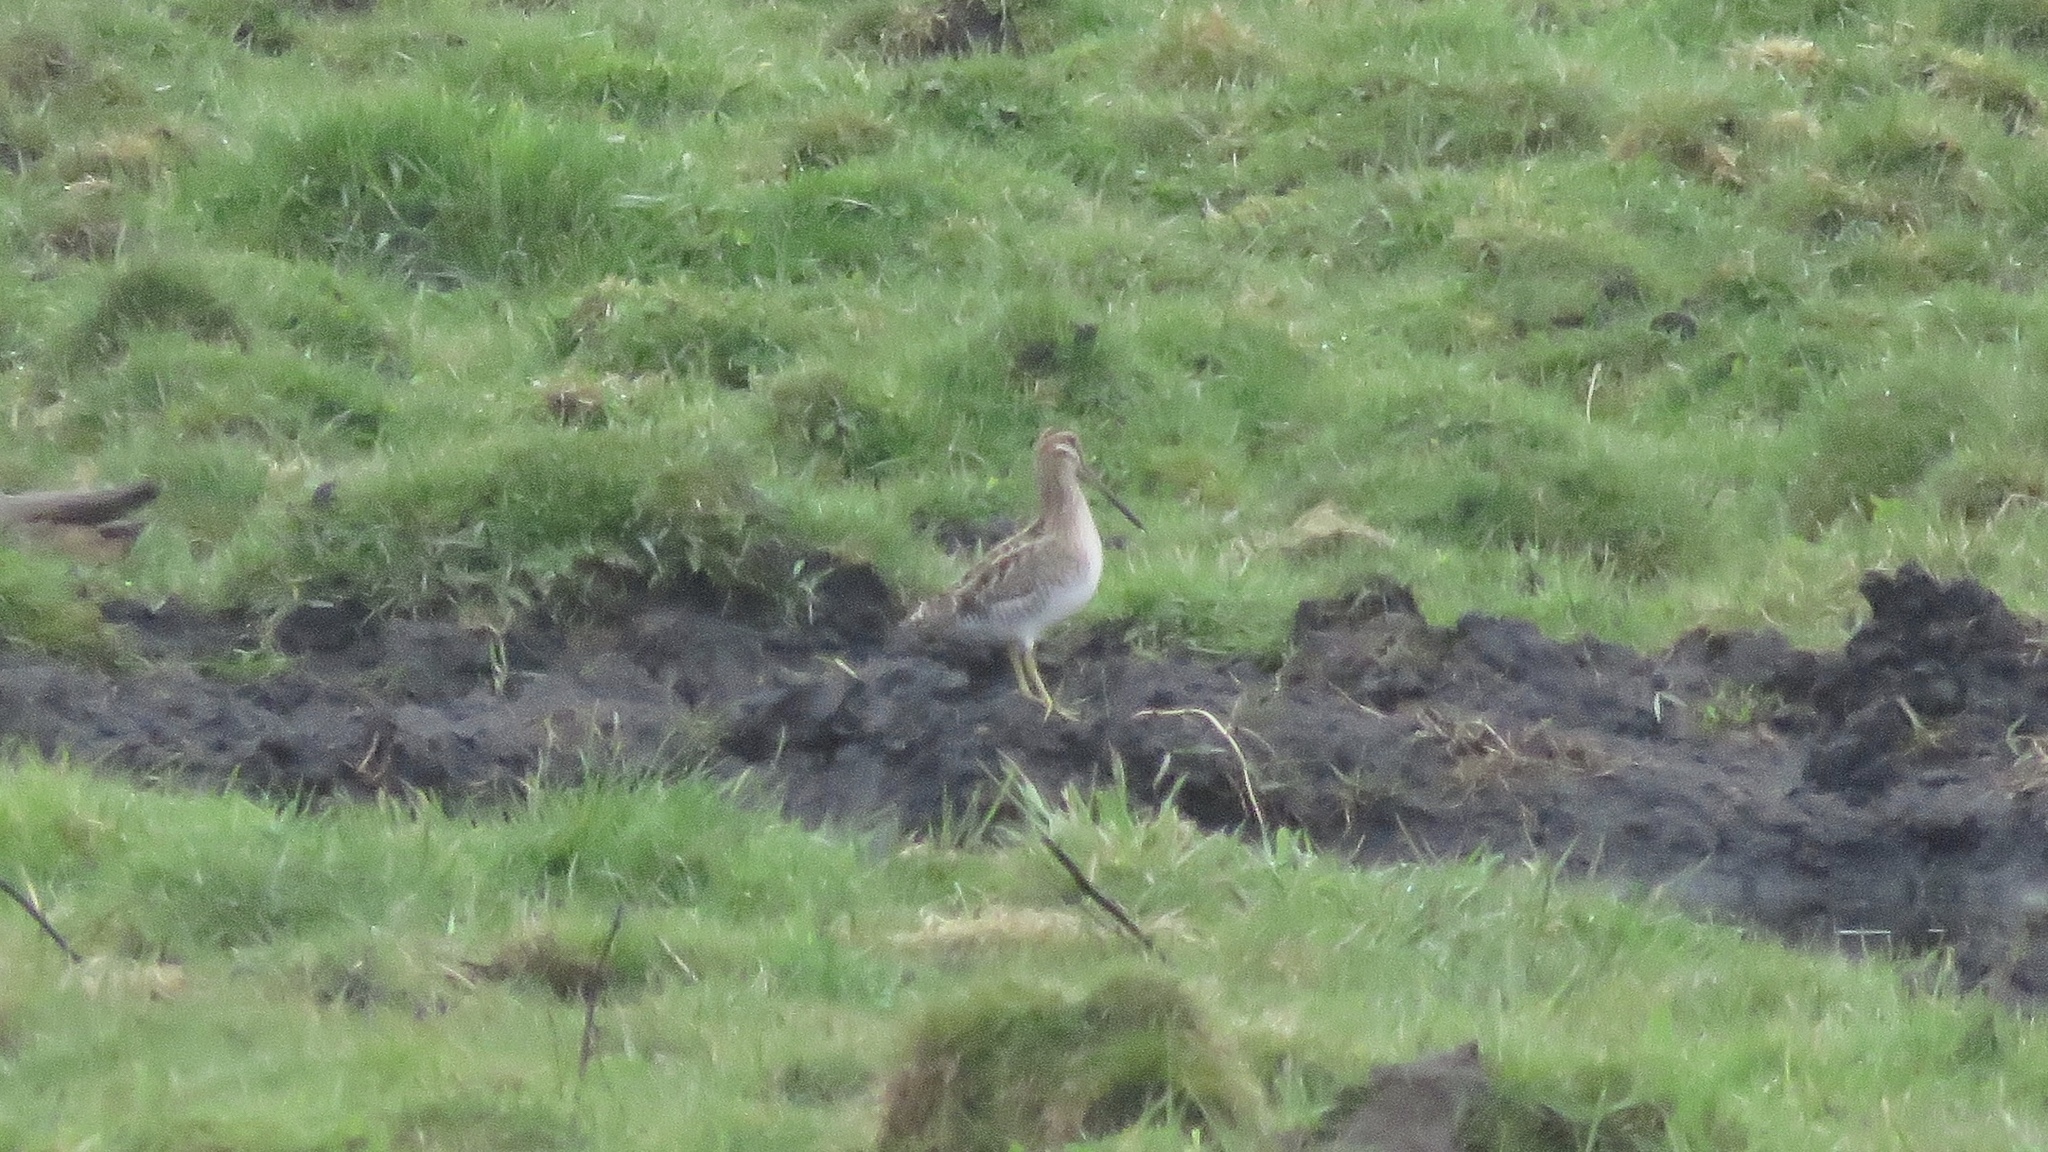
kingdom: Animalia
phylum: Chordata
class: Aves
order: Charadriiformes
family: Scolopacidae
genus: Gallinago
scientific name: Gallinago delicata
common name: Wilson's snipe
